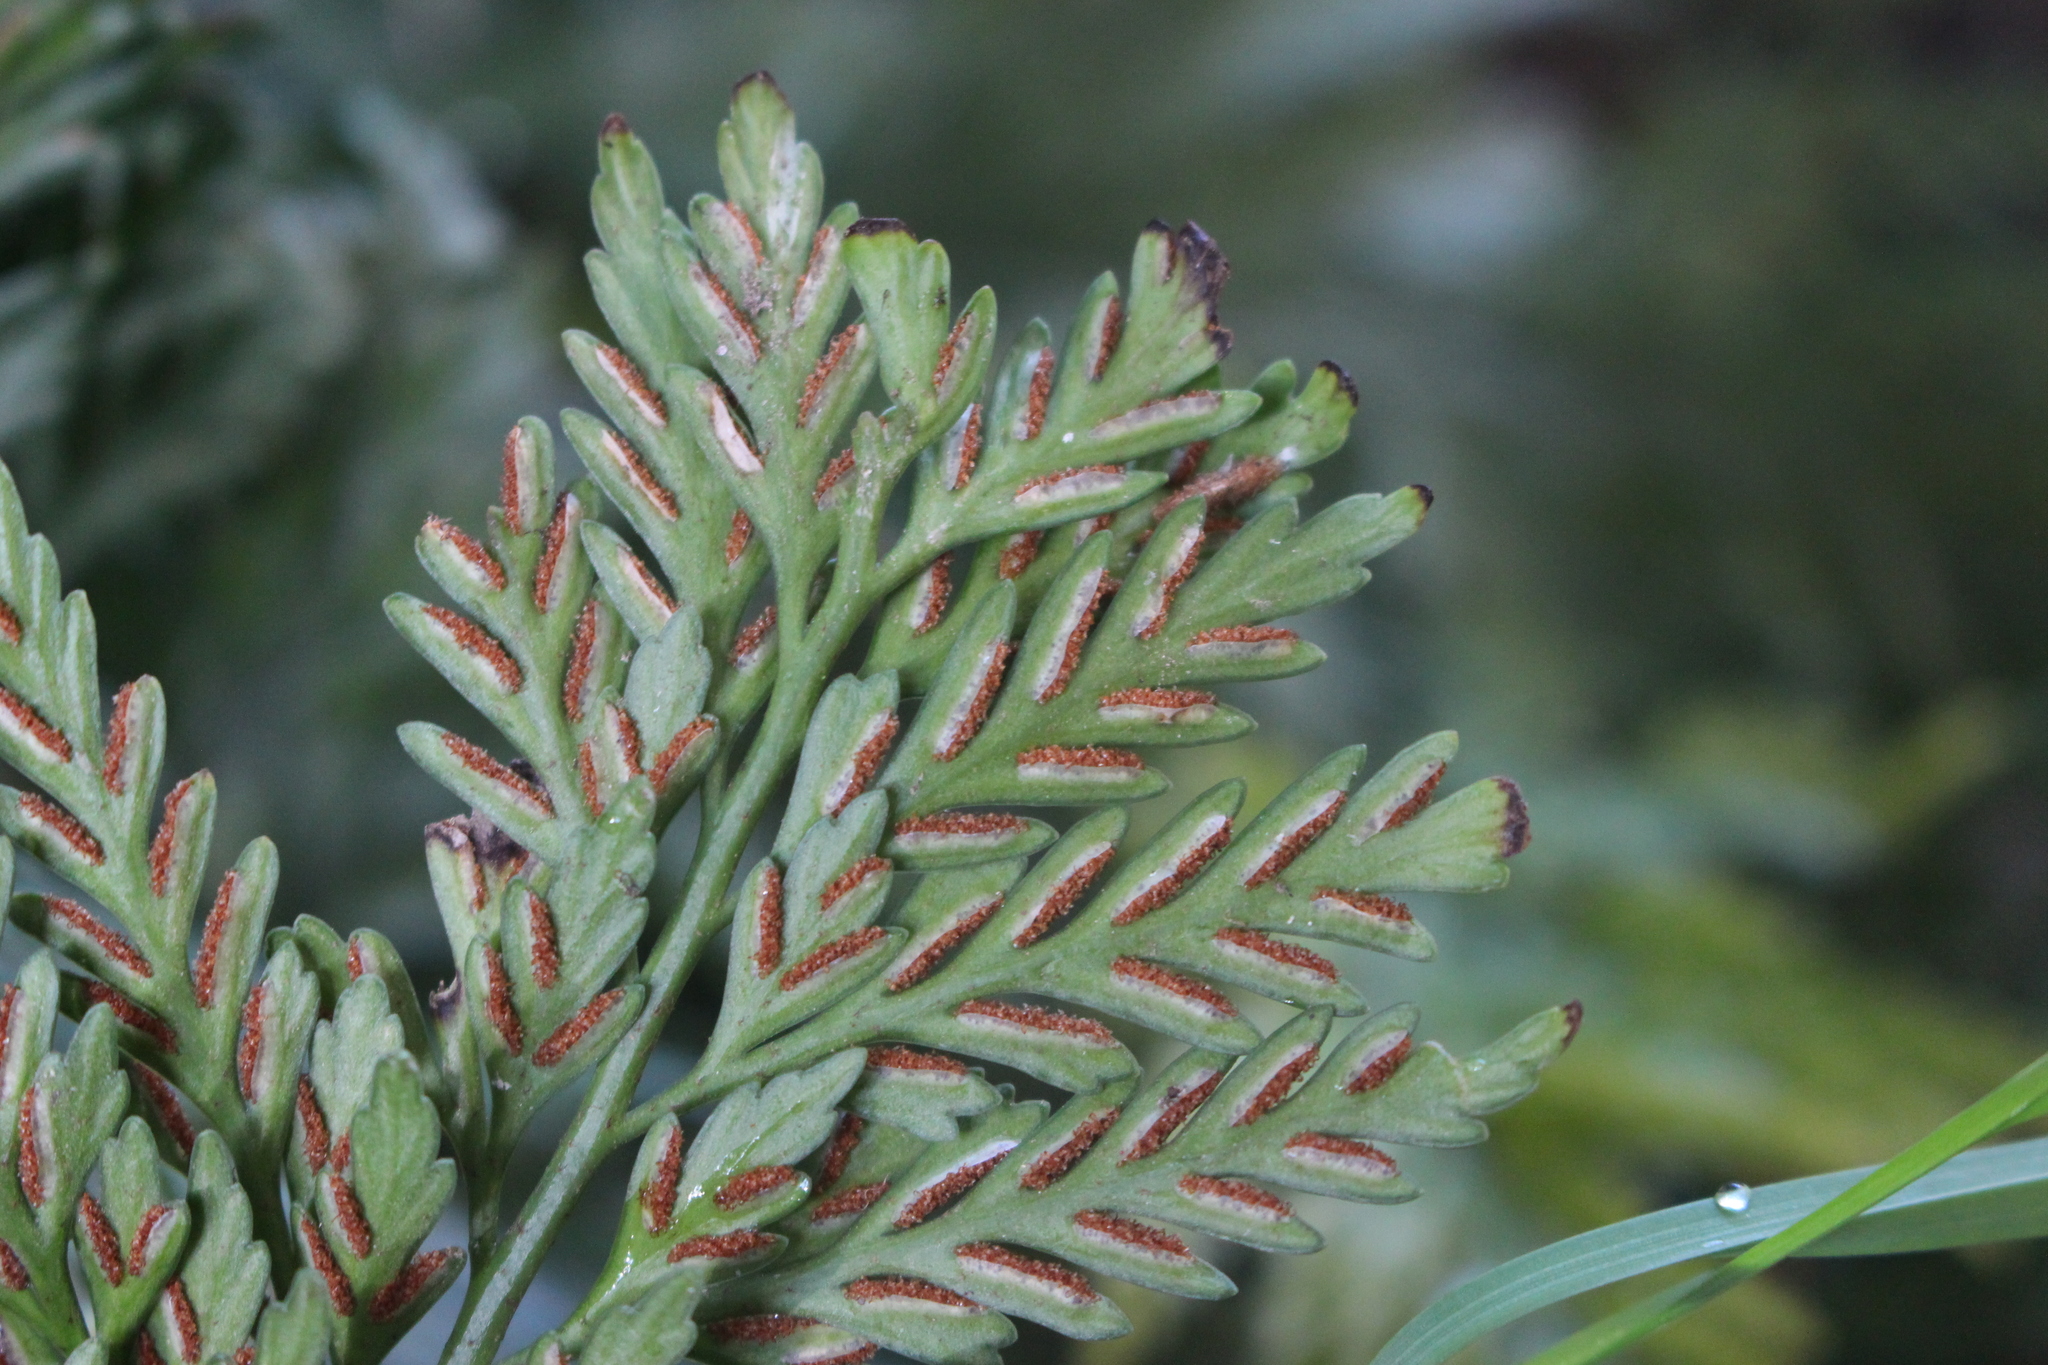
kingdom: Plantae
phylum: Tracheophyta
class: Polypodiopsida
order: Polypodiales
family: Aspleniaceae
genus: Asplenium
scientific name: Asplenium appendiculatum
